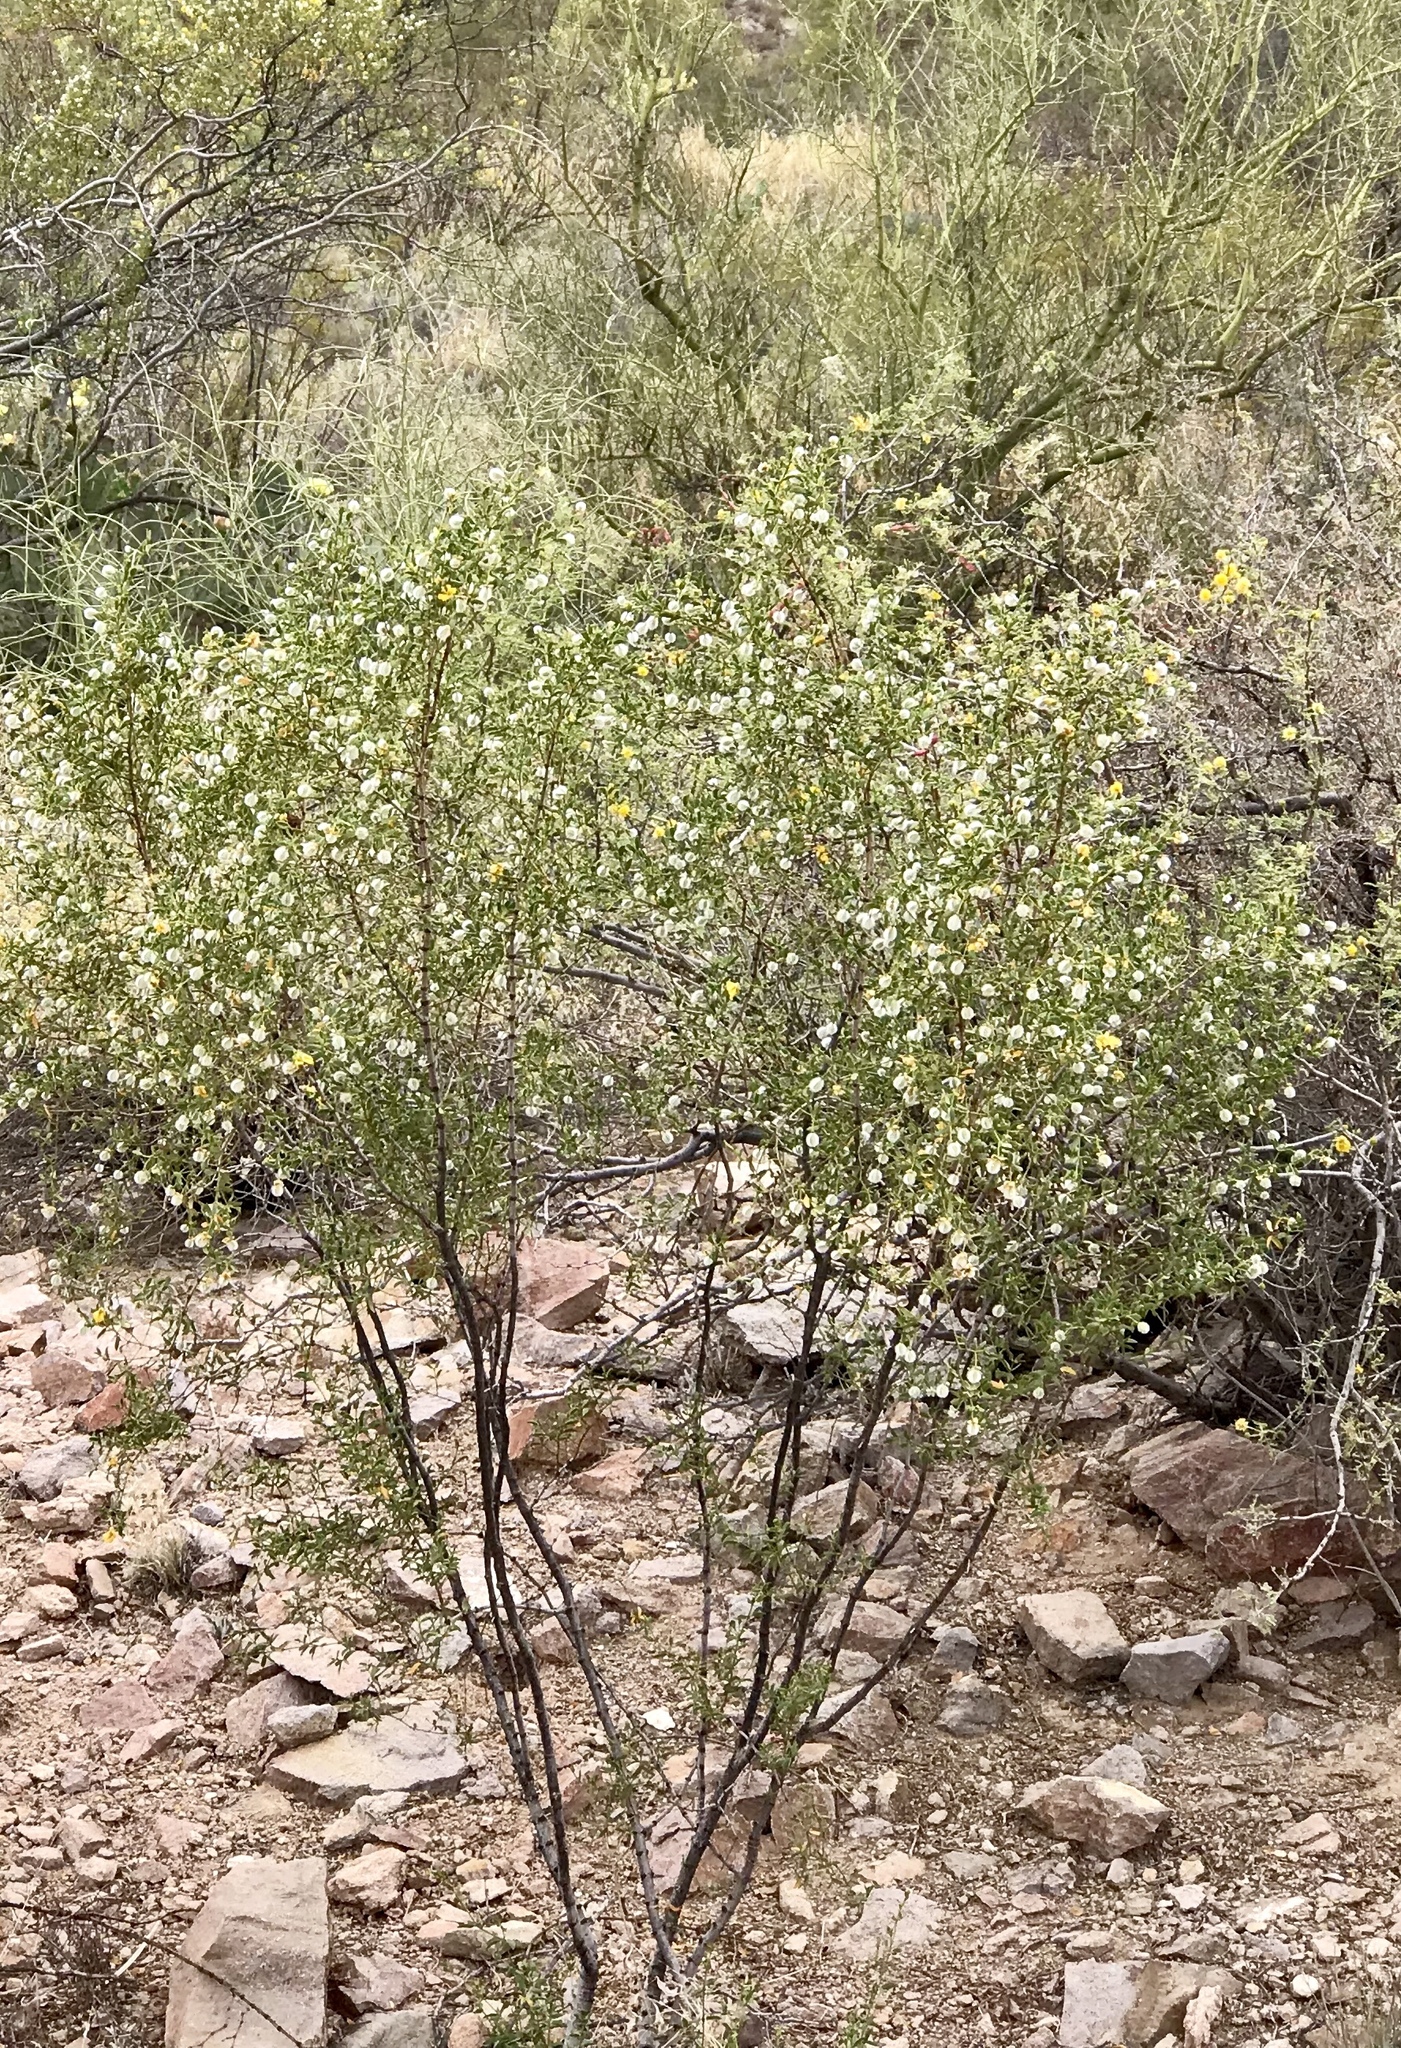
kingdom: Plantae
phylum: Tracheophyta
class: Magnoliopsida
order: Zygophyllales
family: Zygophyllaceae
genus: Larrea
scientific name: Larrea tridentata
